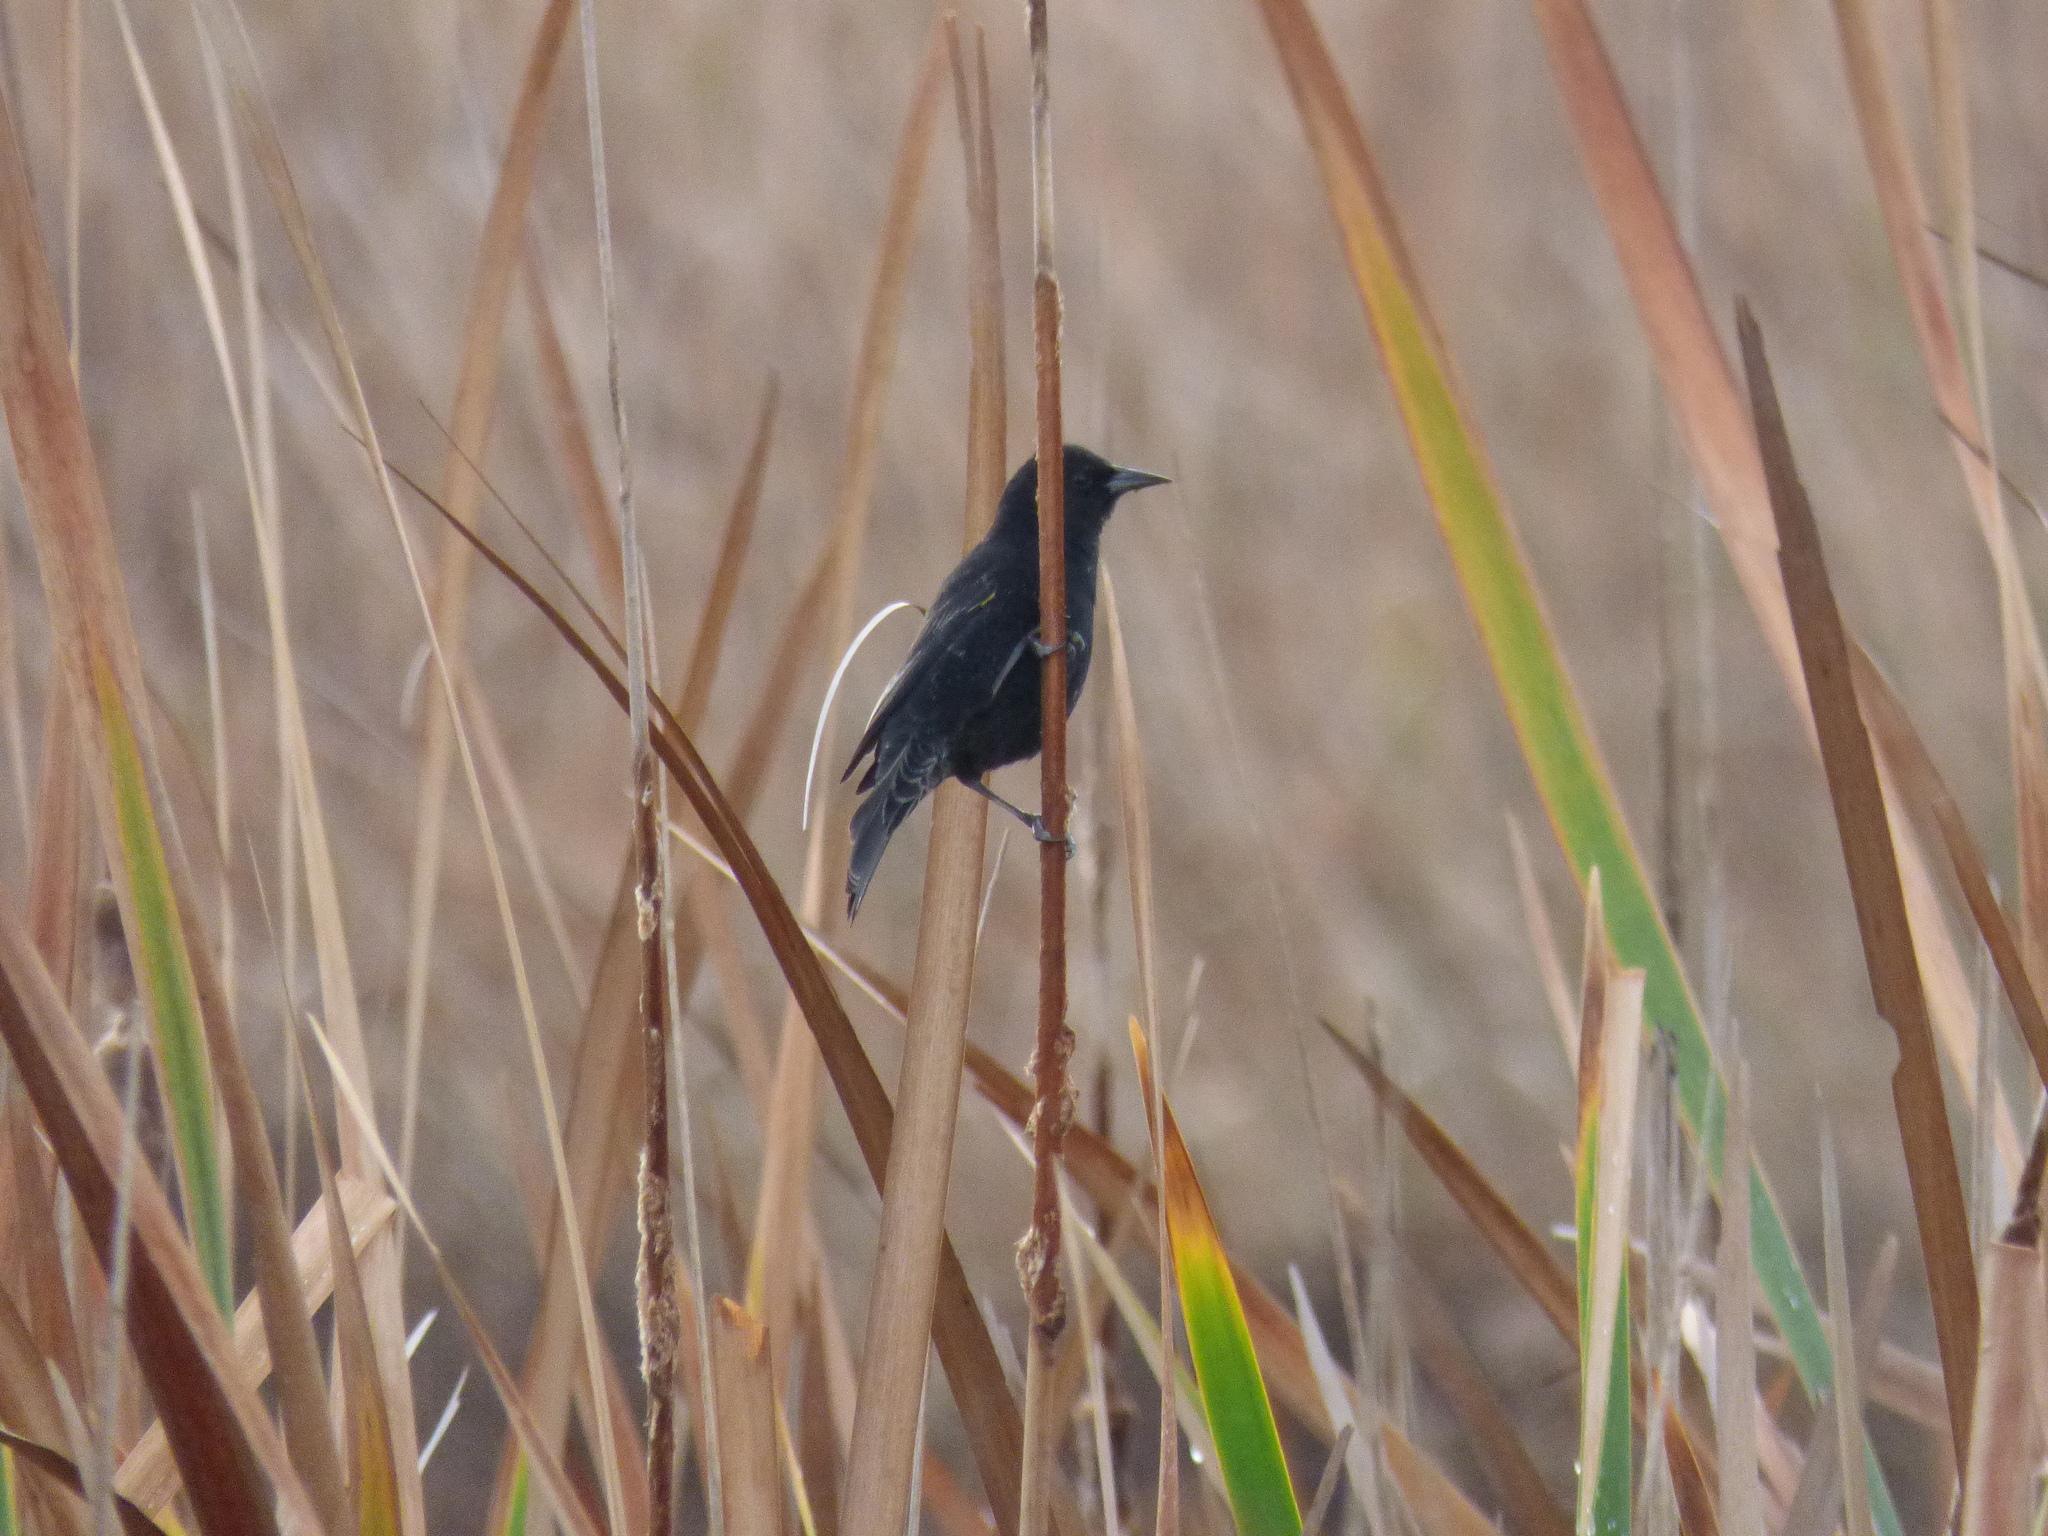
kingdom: Animalia
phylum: Chordata
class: Aves
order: Passeriformes
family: Icteridae
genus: Agelasticus
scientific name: Agelasticus thilius
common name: Yellow-winged blackbird
